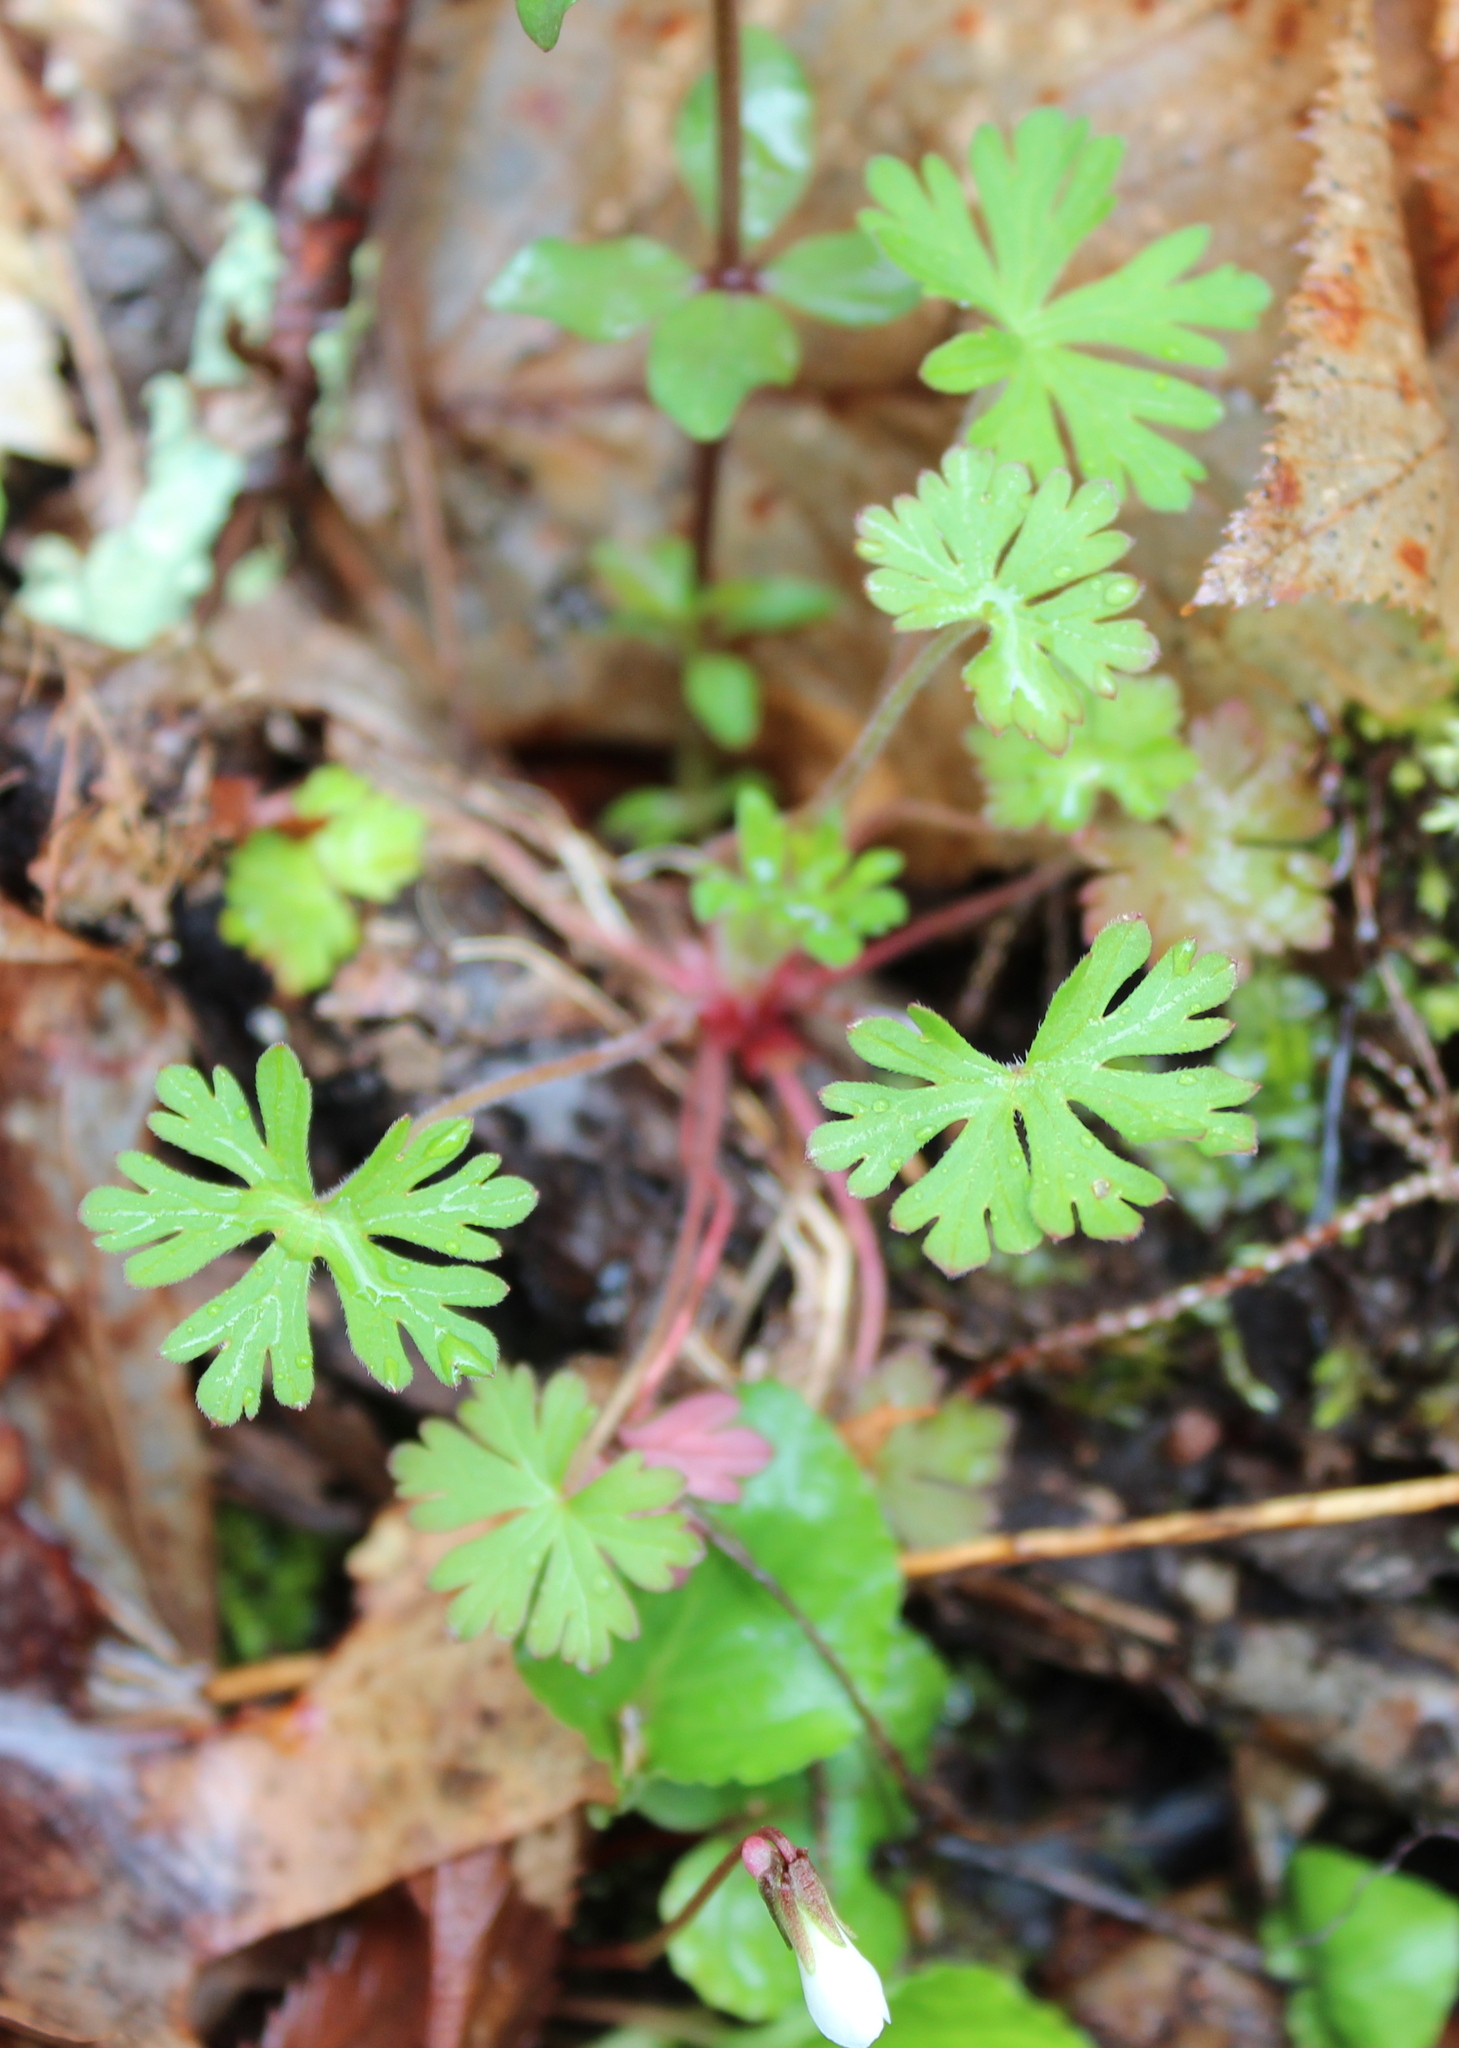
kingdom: Plantae
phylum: Tracheophyta
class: Magnoliopsida
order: Geraniales
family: Geraniaceae
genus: Geranium
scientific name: Geranium carolinianum
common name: Carolina crane's-bill
